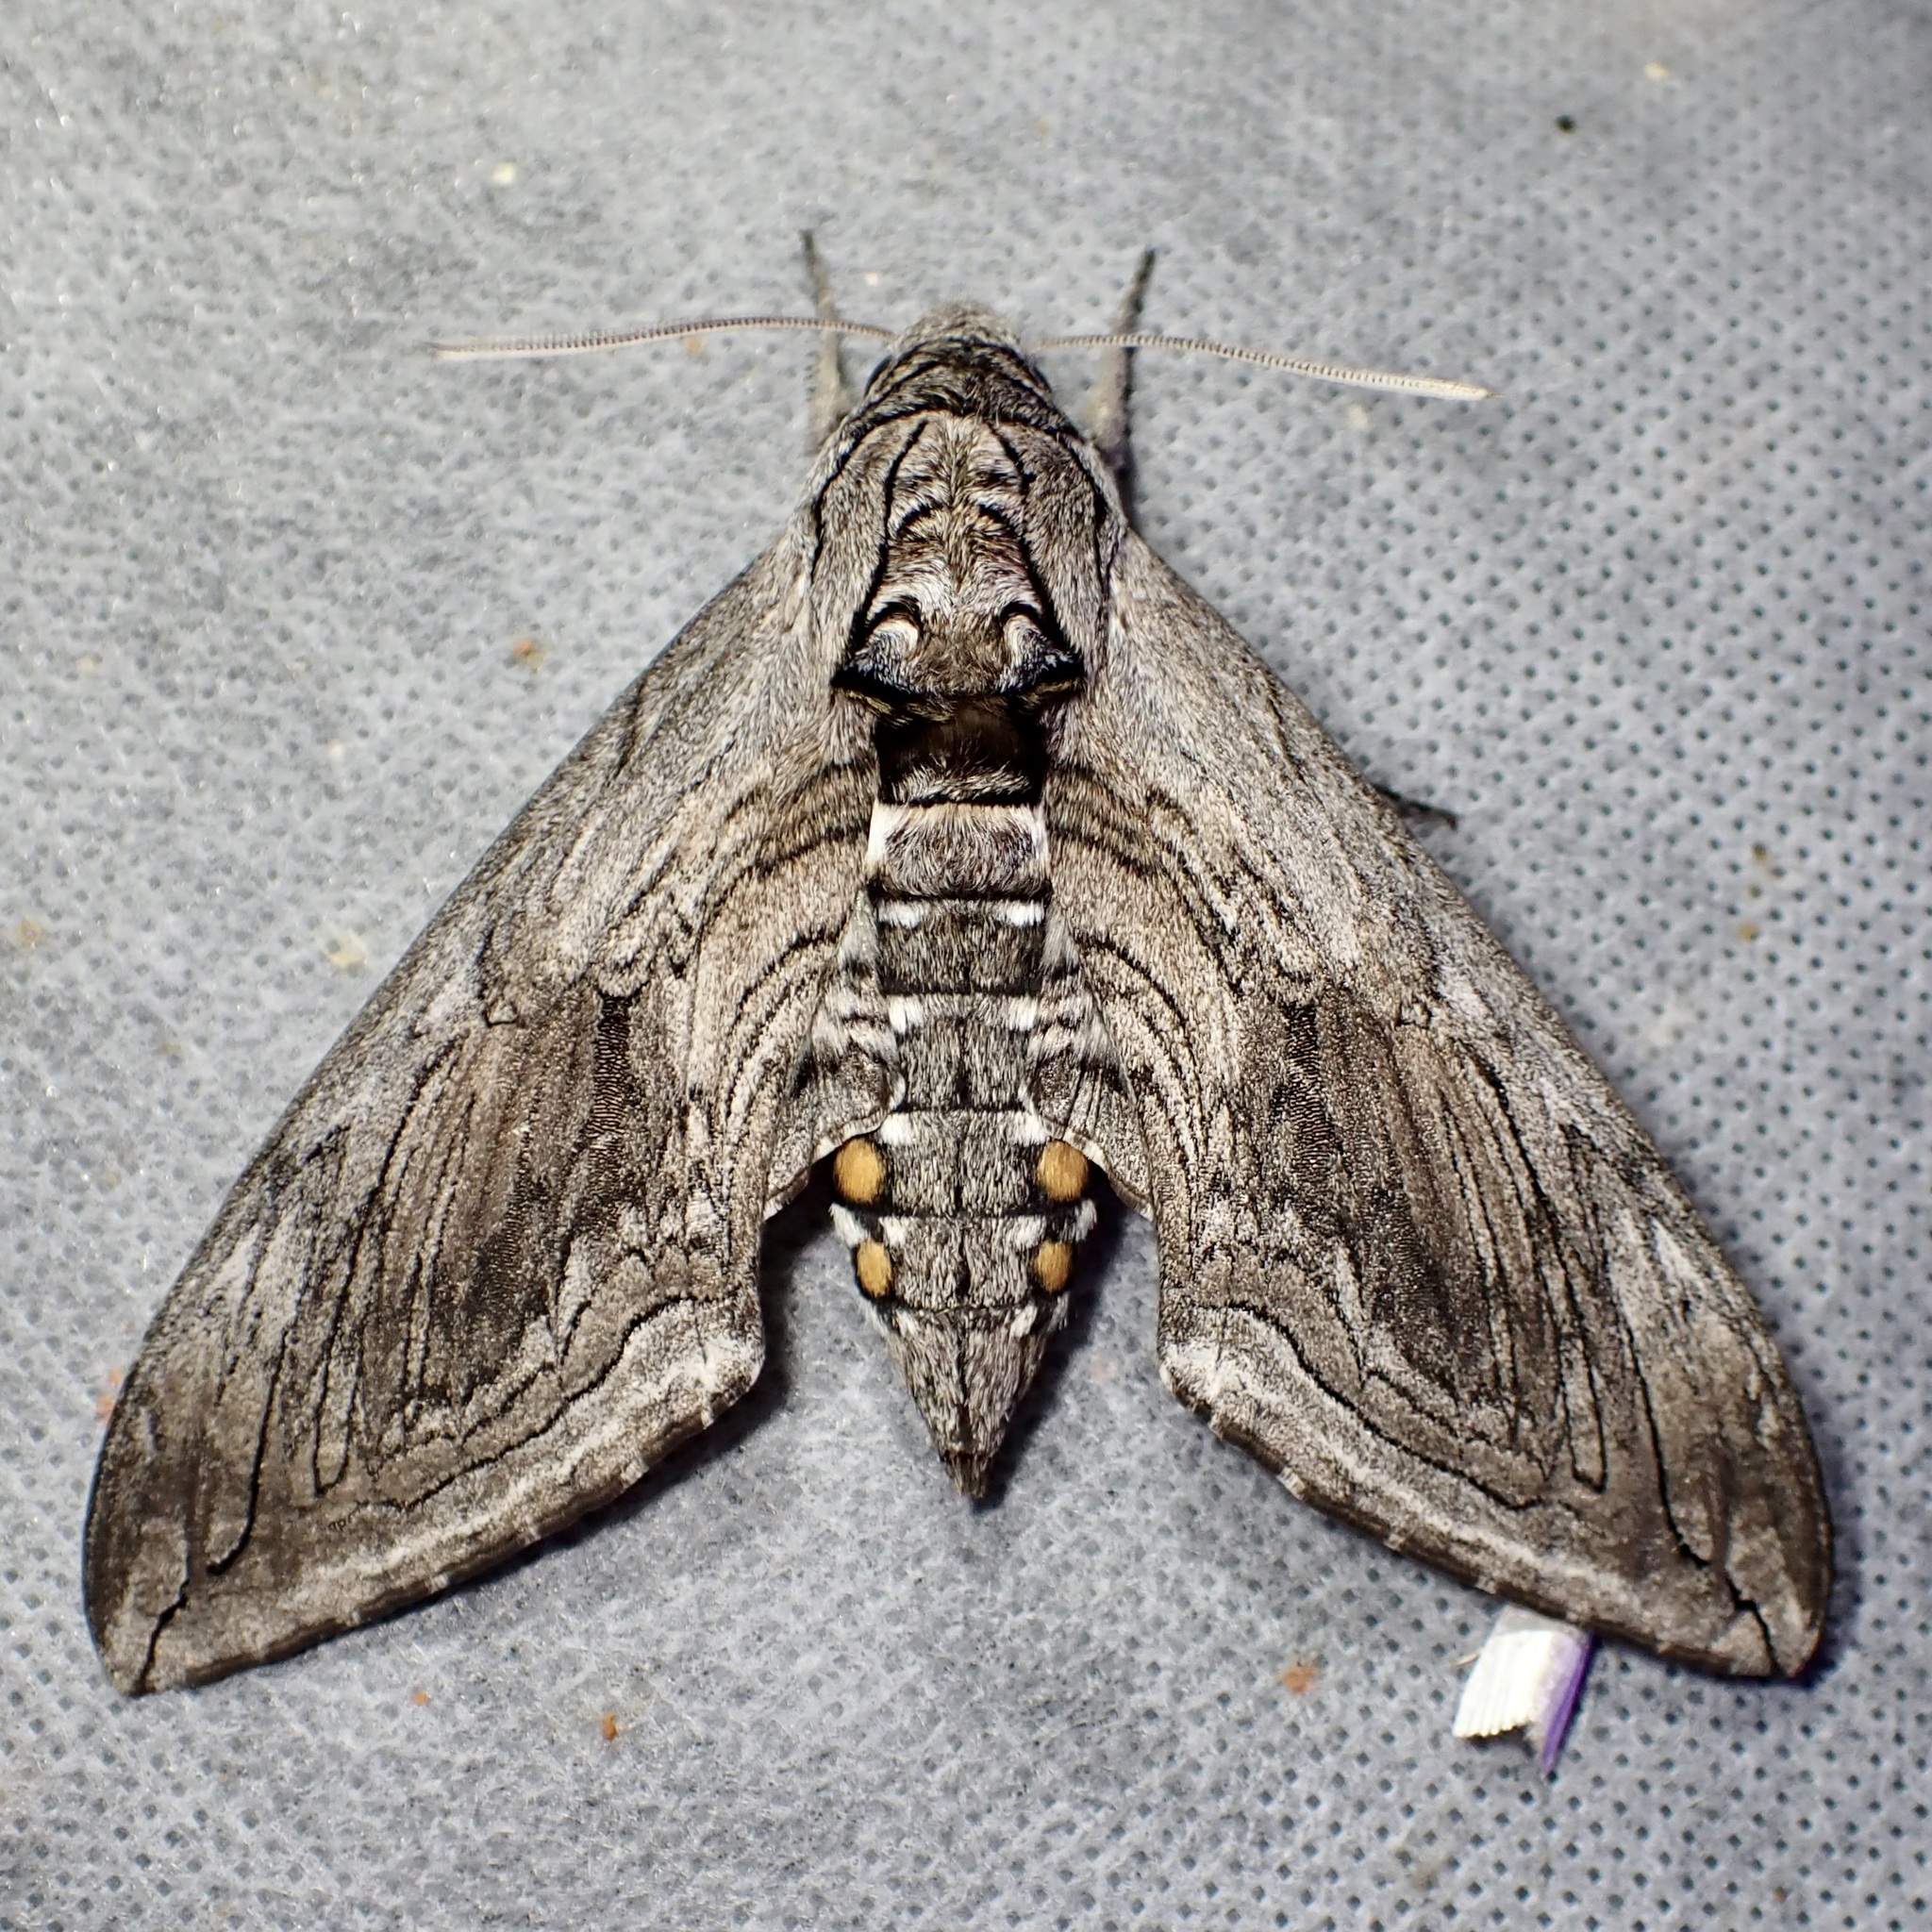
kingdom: Animalia
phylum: Arthropoda
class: Insecta
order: Lepidoptera
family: Sphingidae
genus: Manduca
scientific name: Manduca quinquemaculatus
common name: Five-spotted hawk-moth
